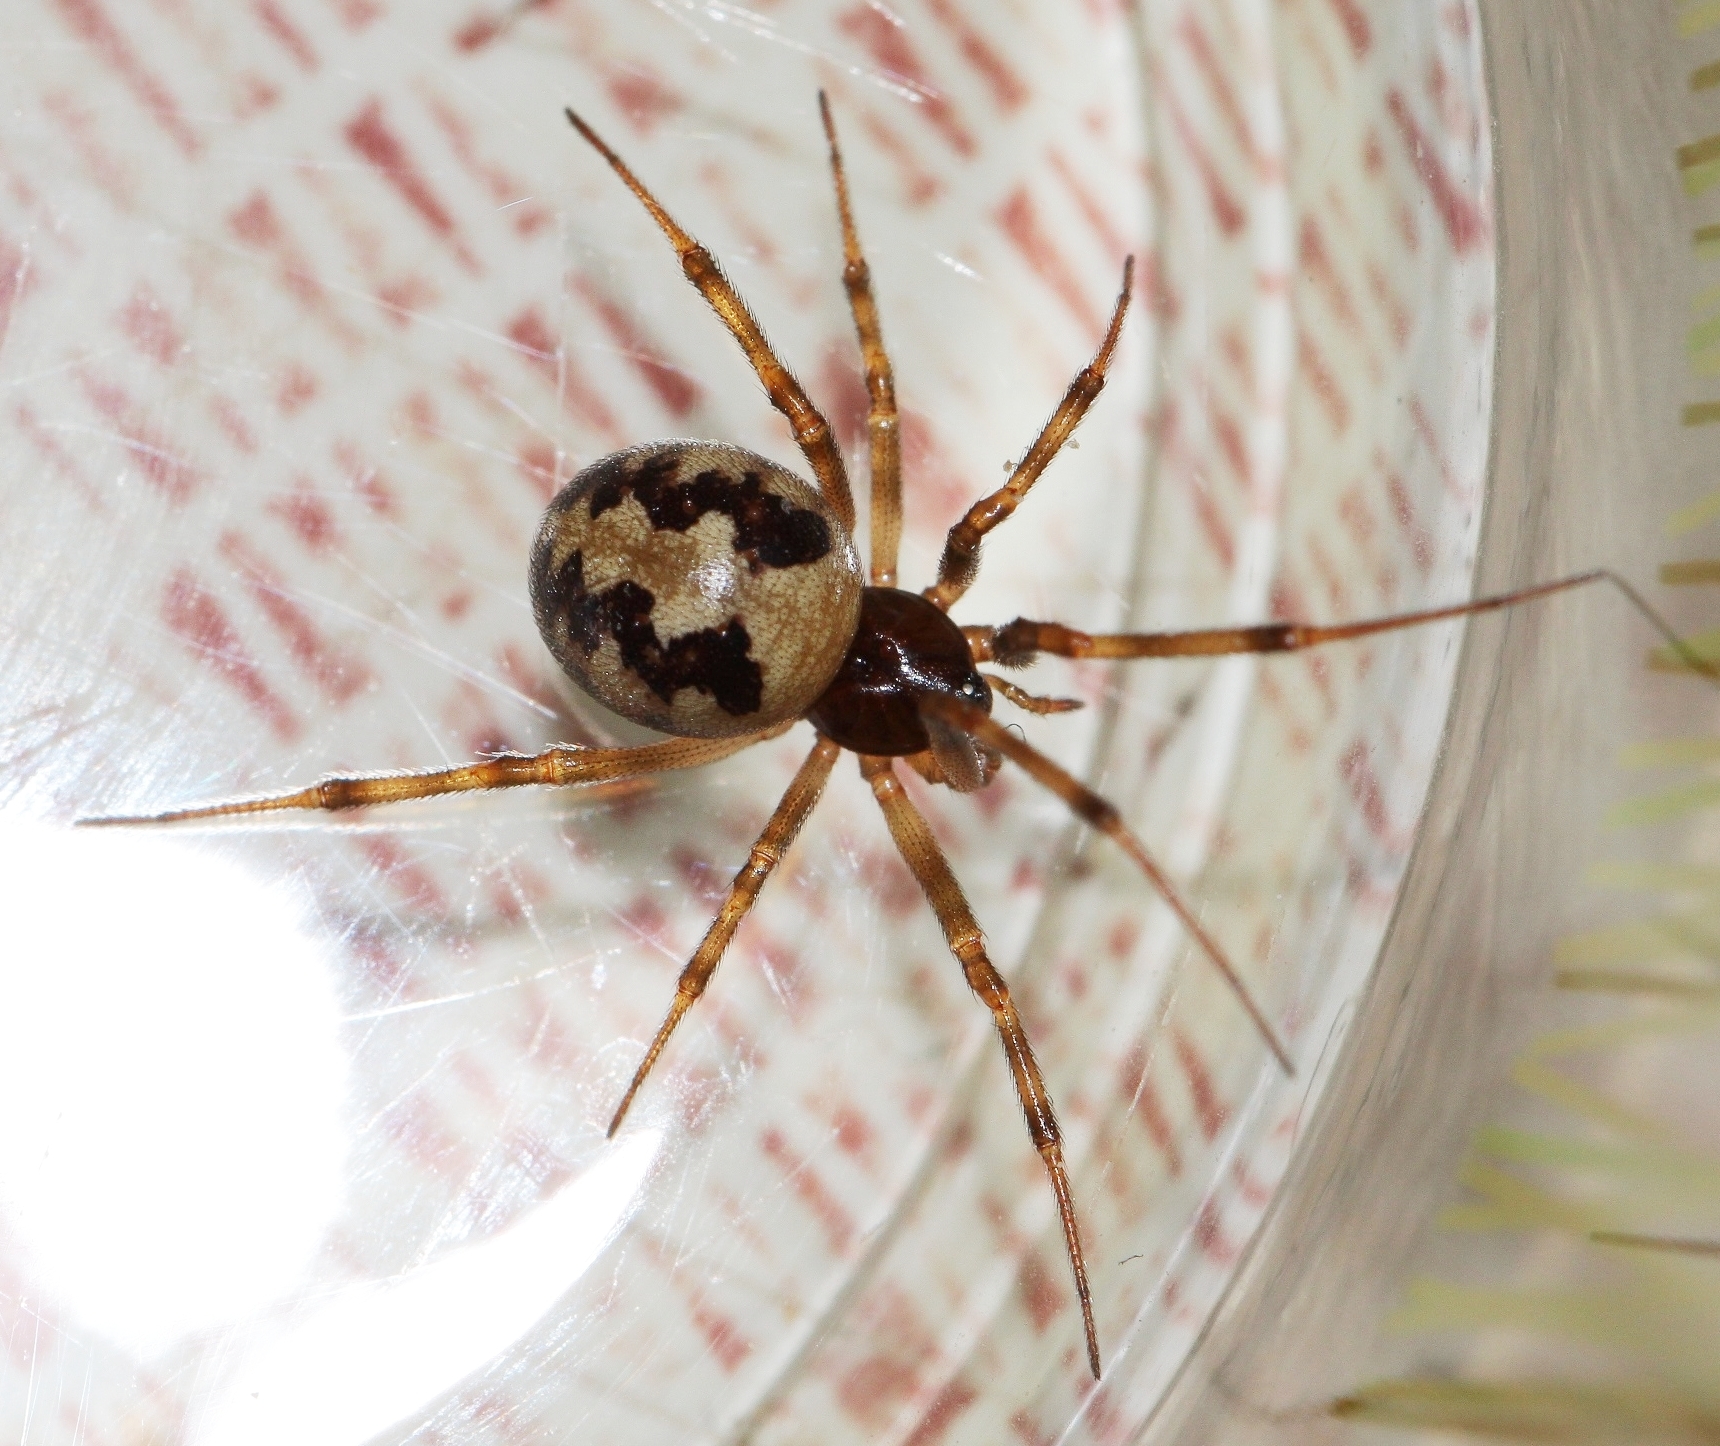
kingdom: Animalia
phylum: Arthropoda
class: Arachnida
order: Araneae
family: Theridiidae
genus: Steatoda
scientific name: Steatoda triangulosa
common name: Triangulate bud spider
